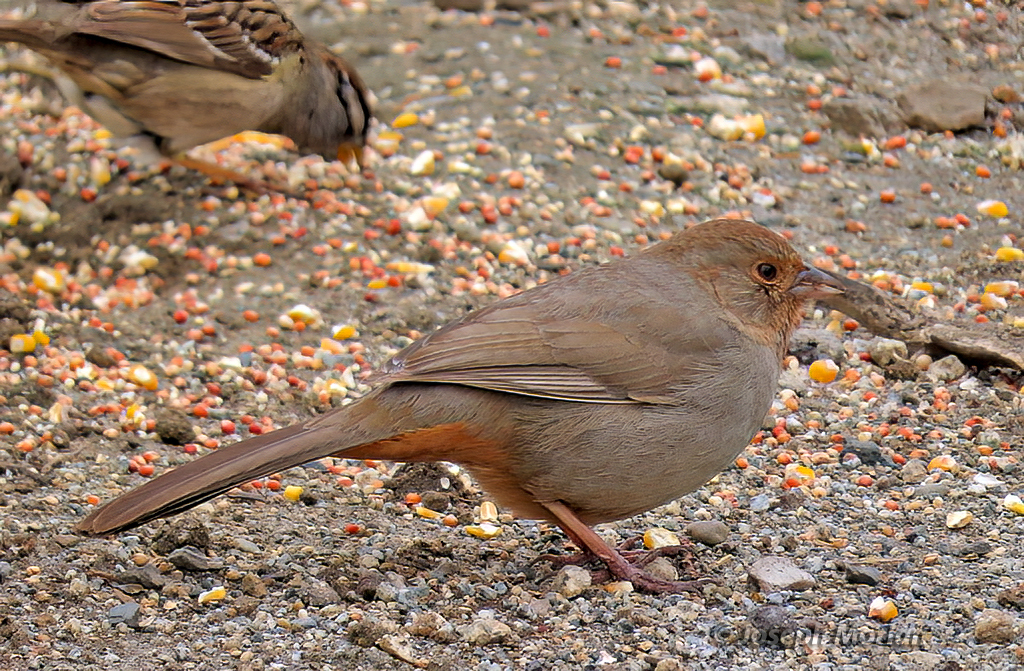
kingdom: Animalia
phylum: Chordata
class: Aves
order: Passeriformes
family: Passerellidae
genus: Melozone
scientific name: Melozone crissalis
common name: California towhee
